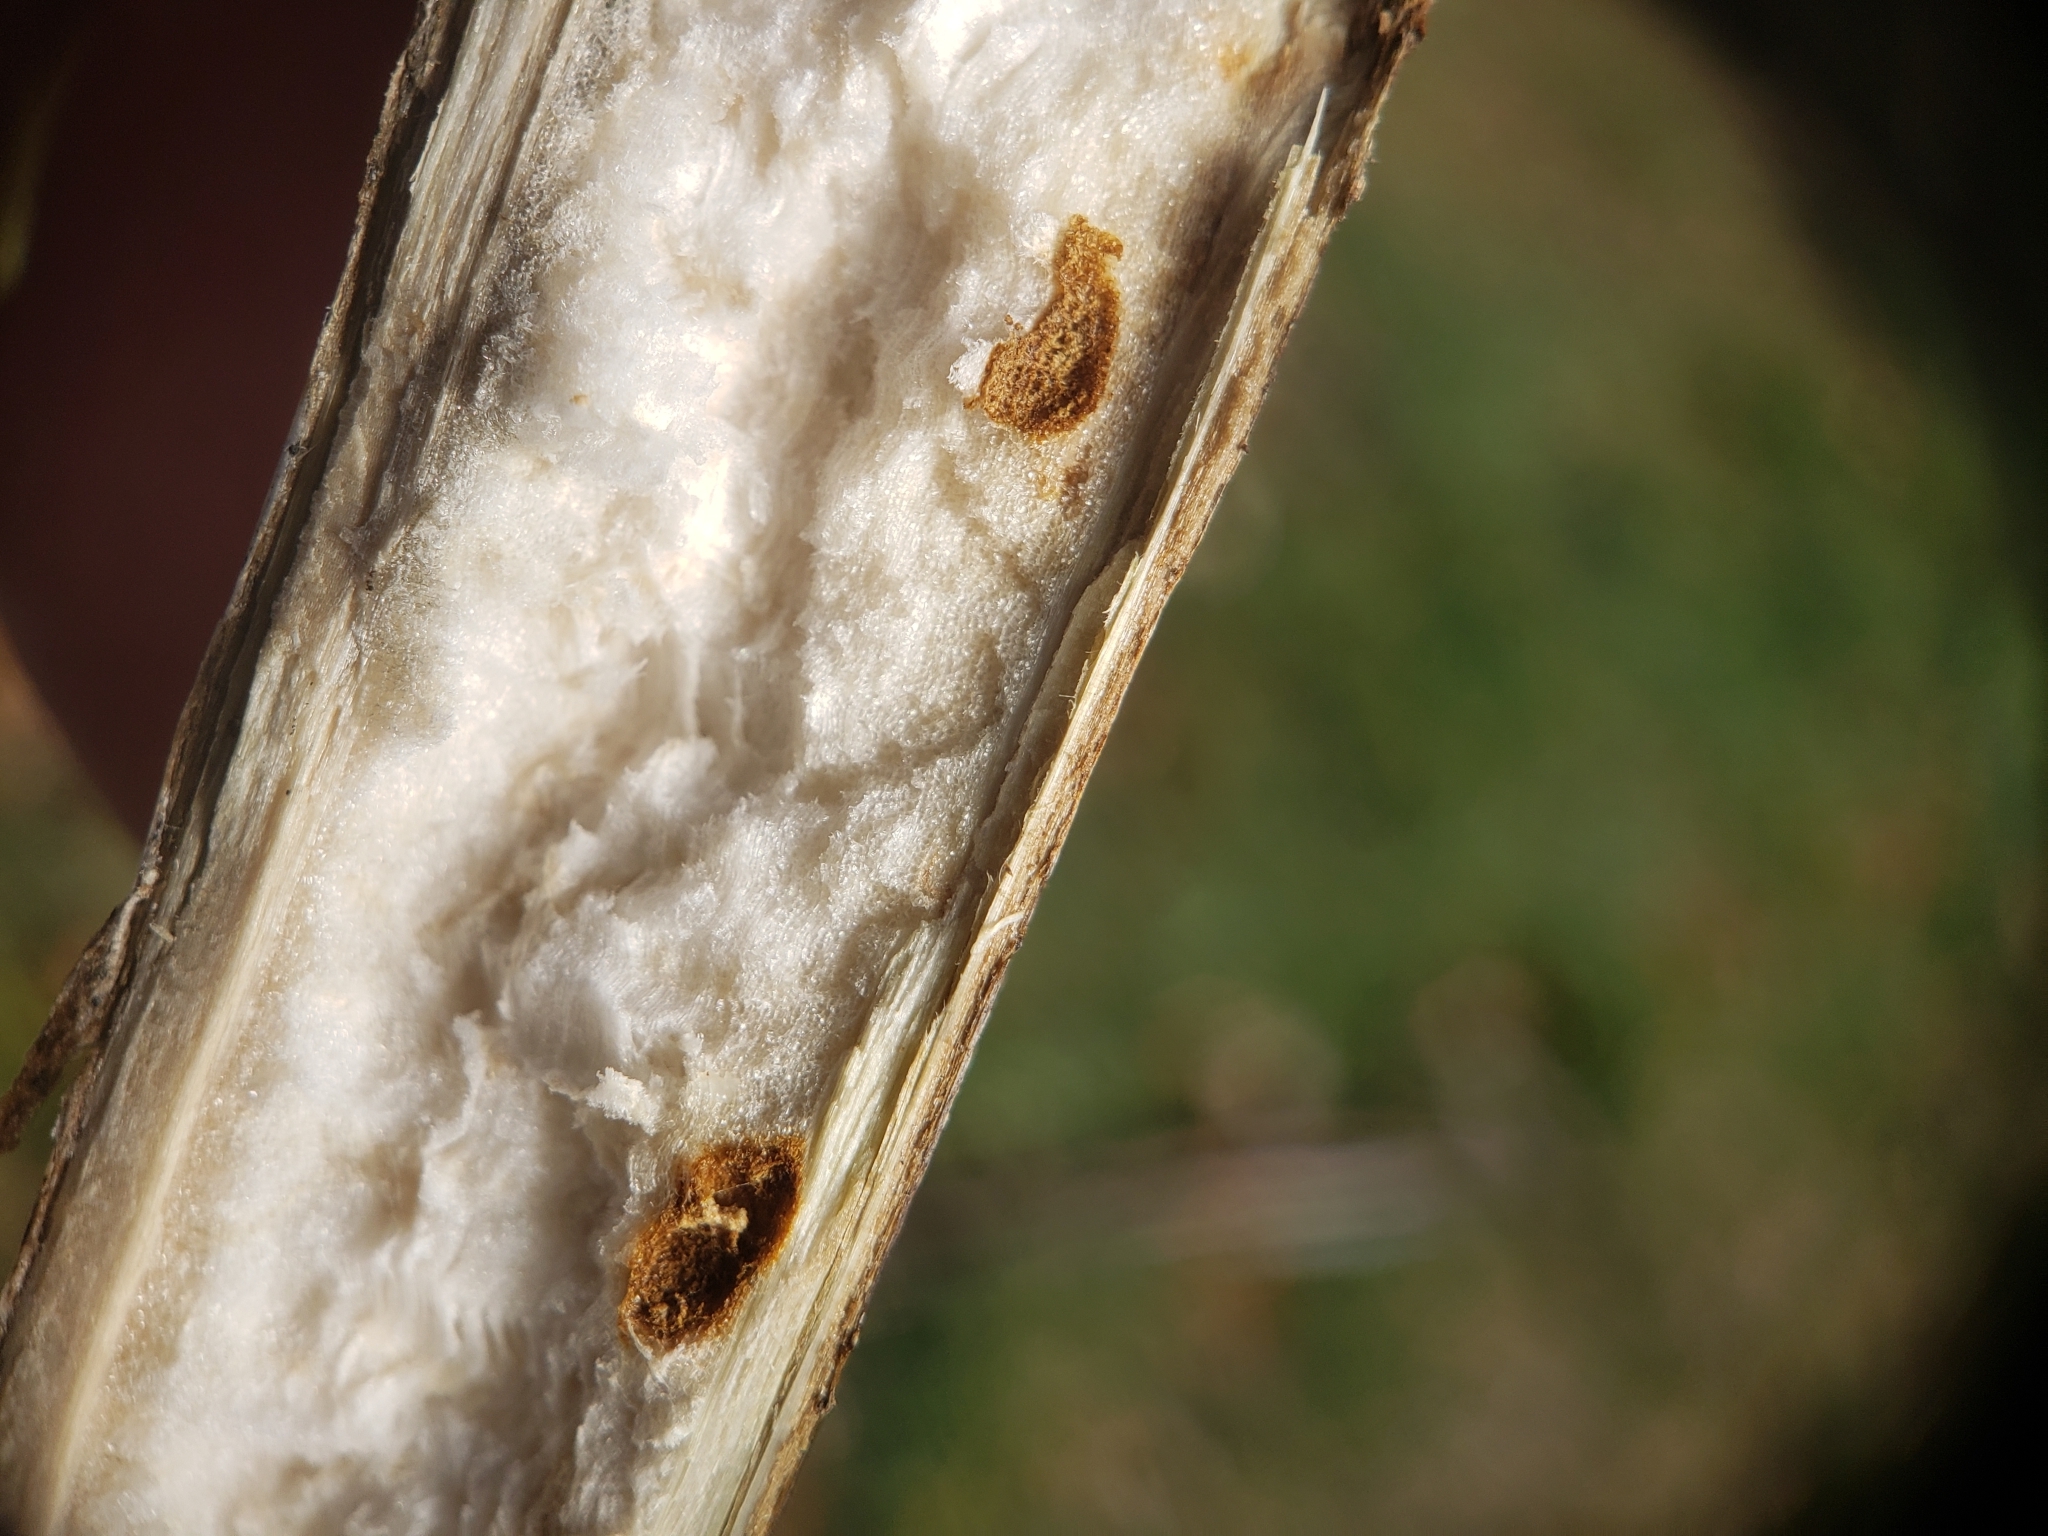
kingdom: Animalia
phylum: Arthropoda
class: Insecta
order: Hymenoptera
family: Cynipidae
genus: Antistrophus
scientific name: Antistrophus
